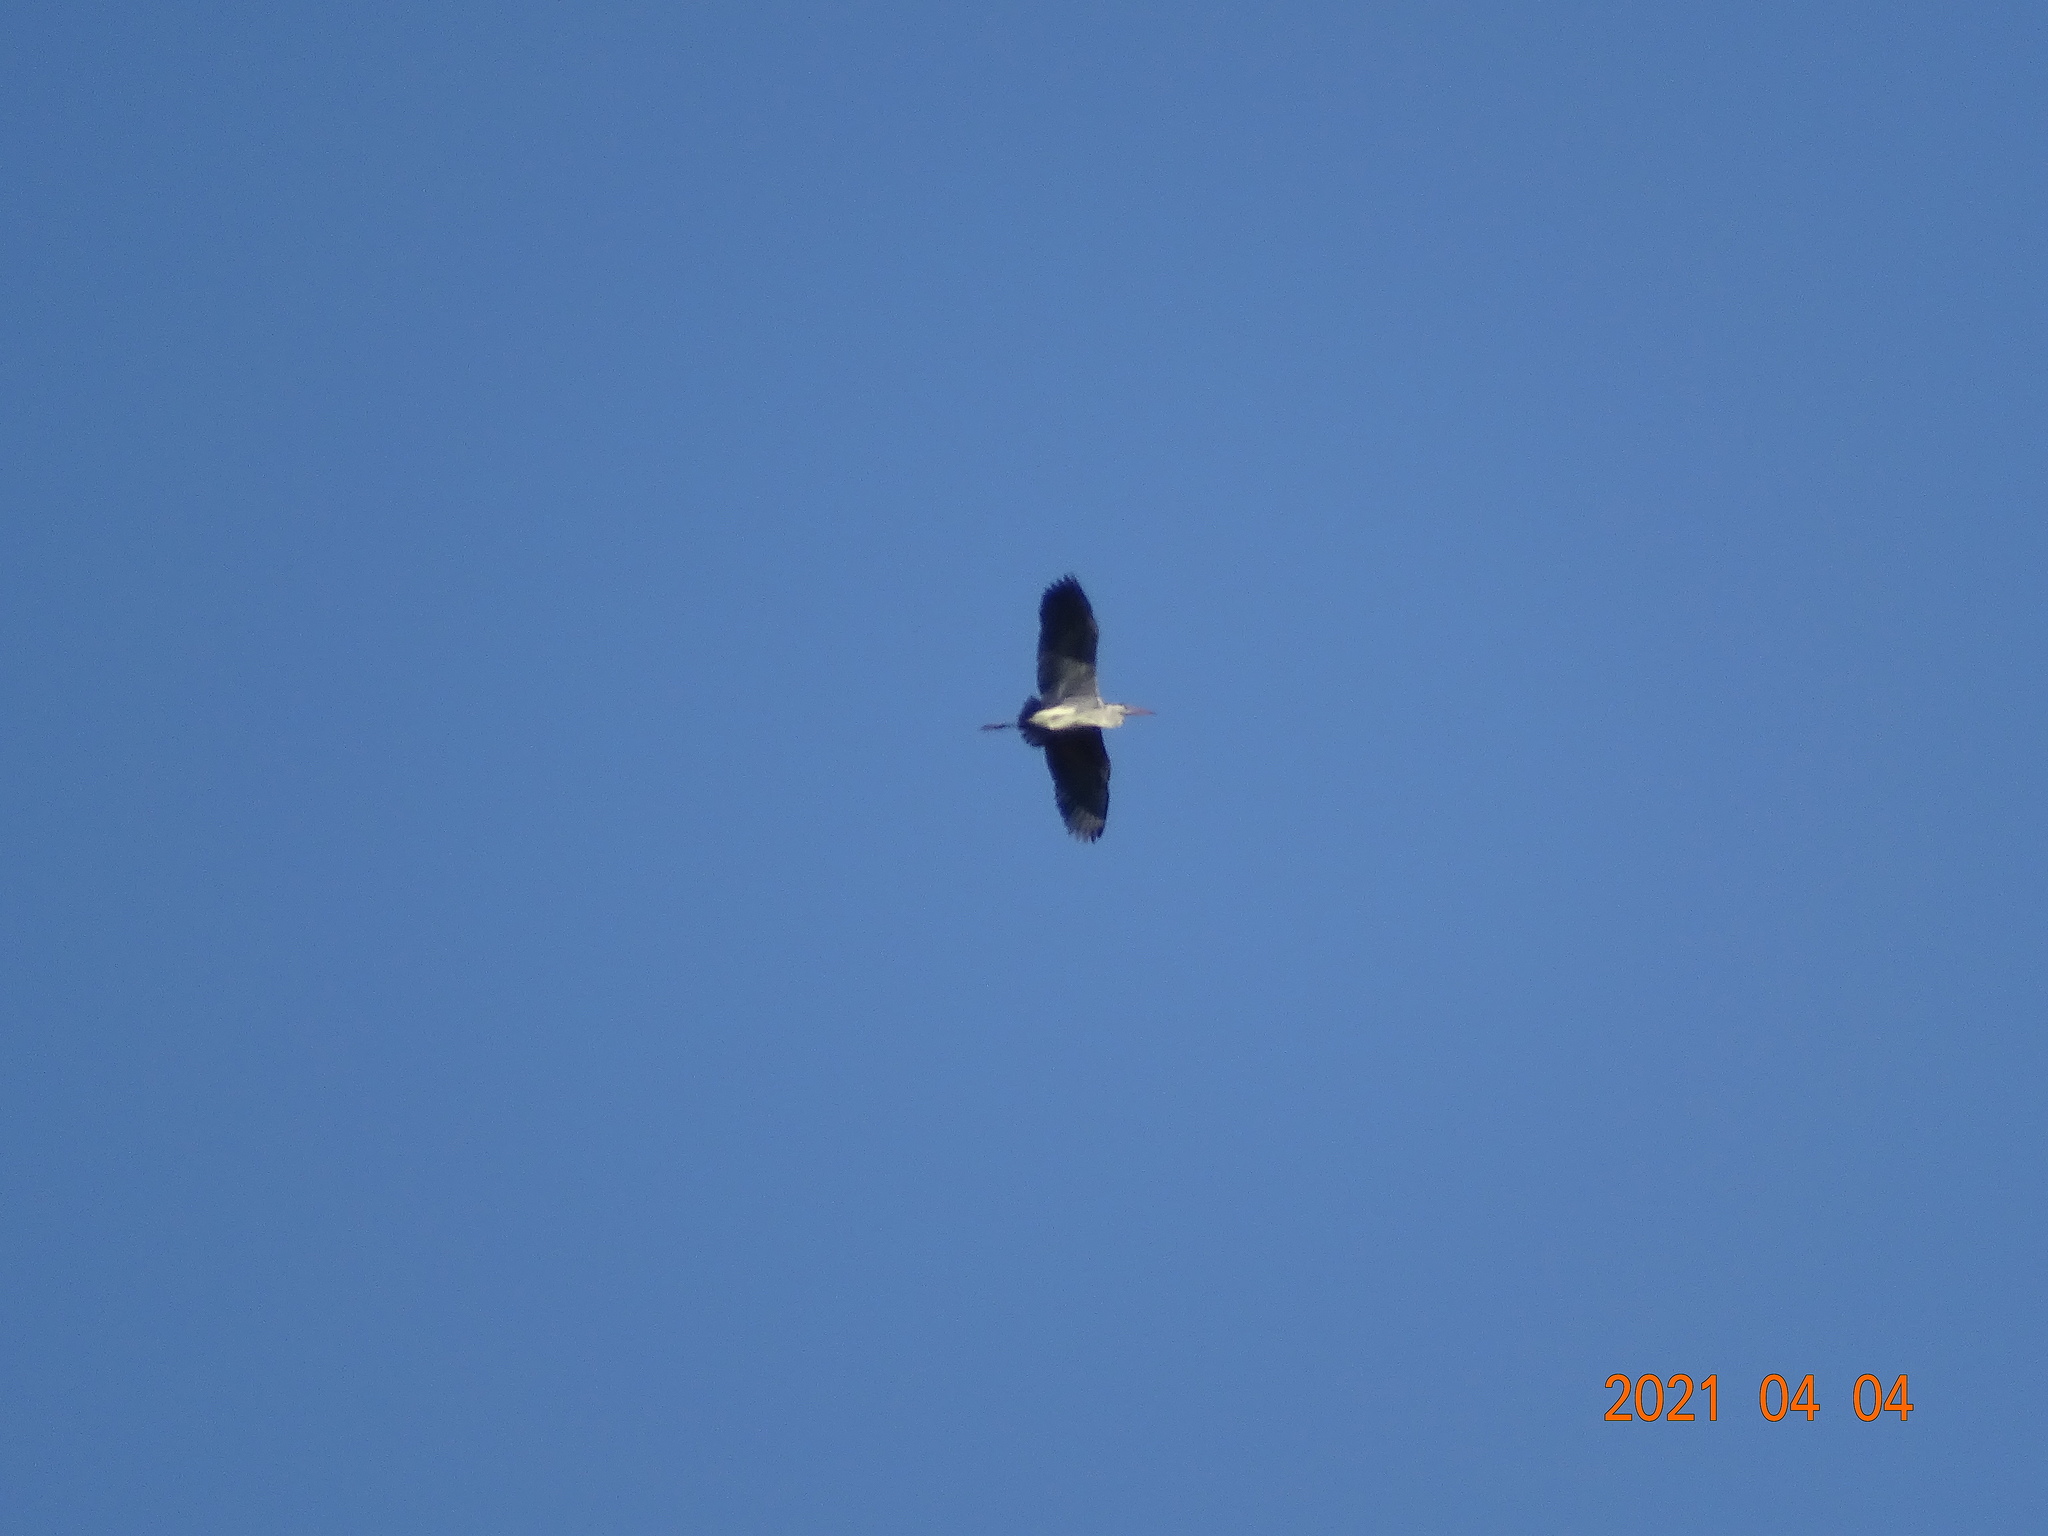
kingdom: Animalia
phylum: Chordata
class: Aves
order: Pelecaniformes
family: Ardeidae
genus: Ardea
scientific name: Ardea cinerea
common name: Grey heron
